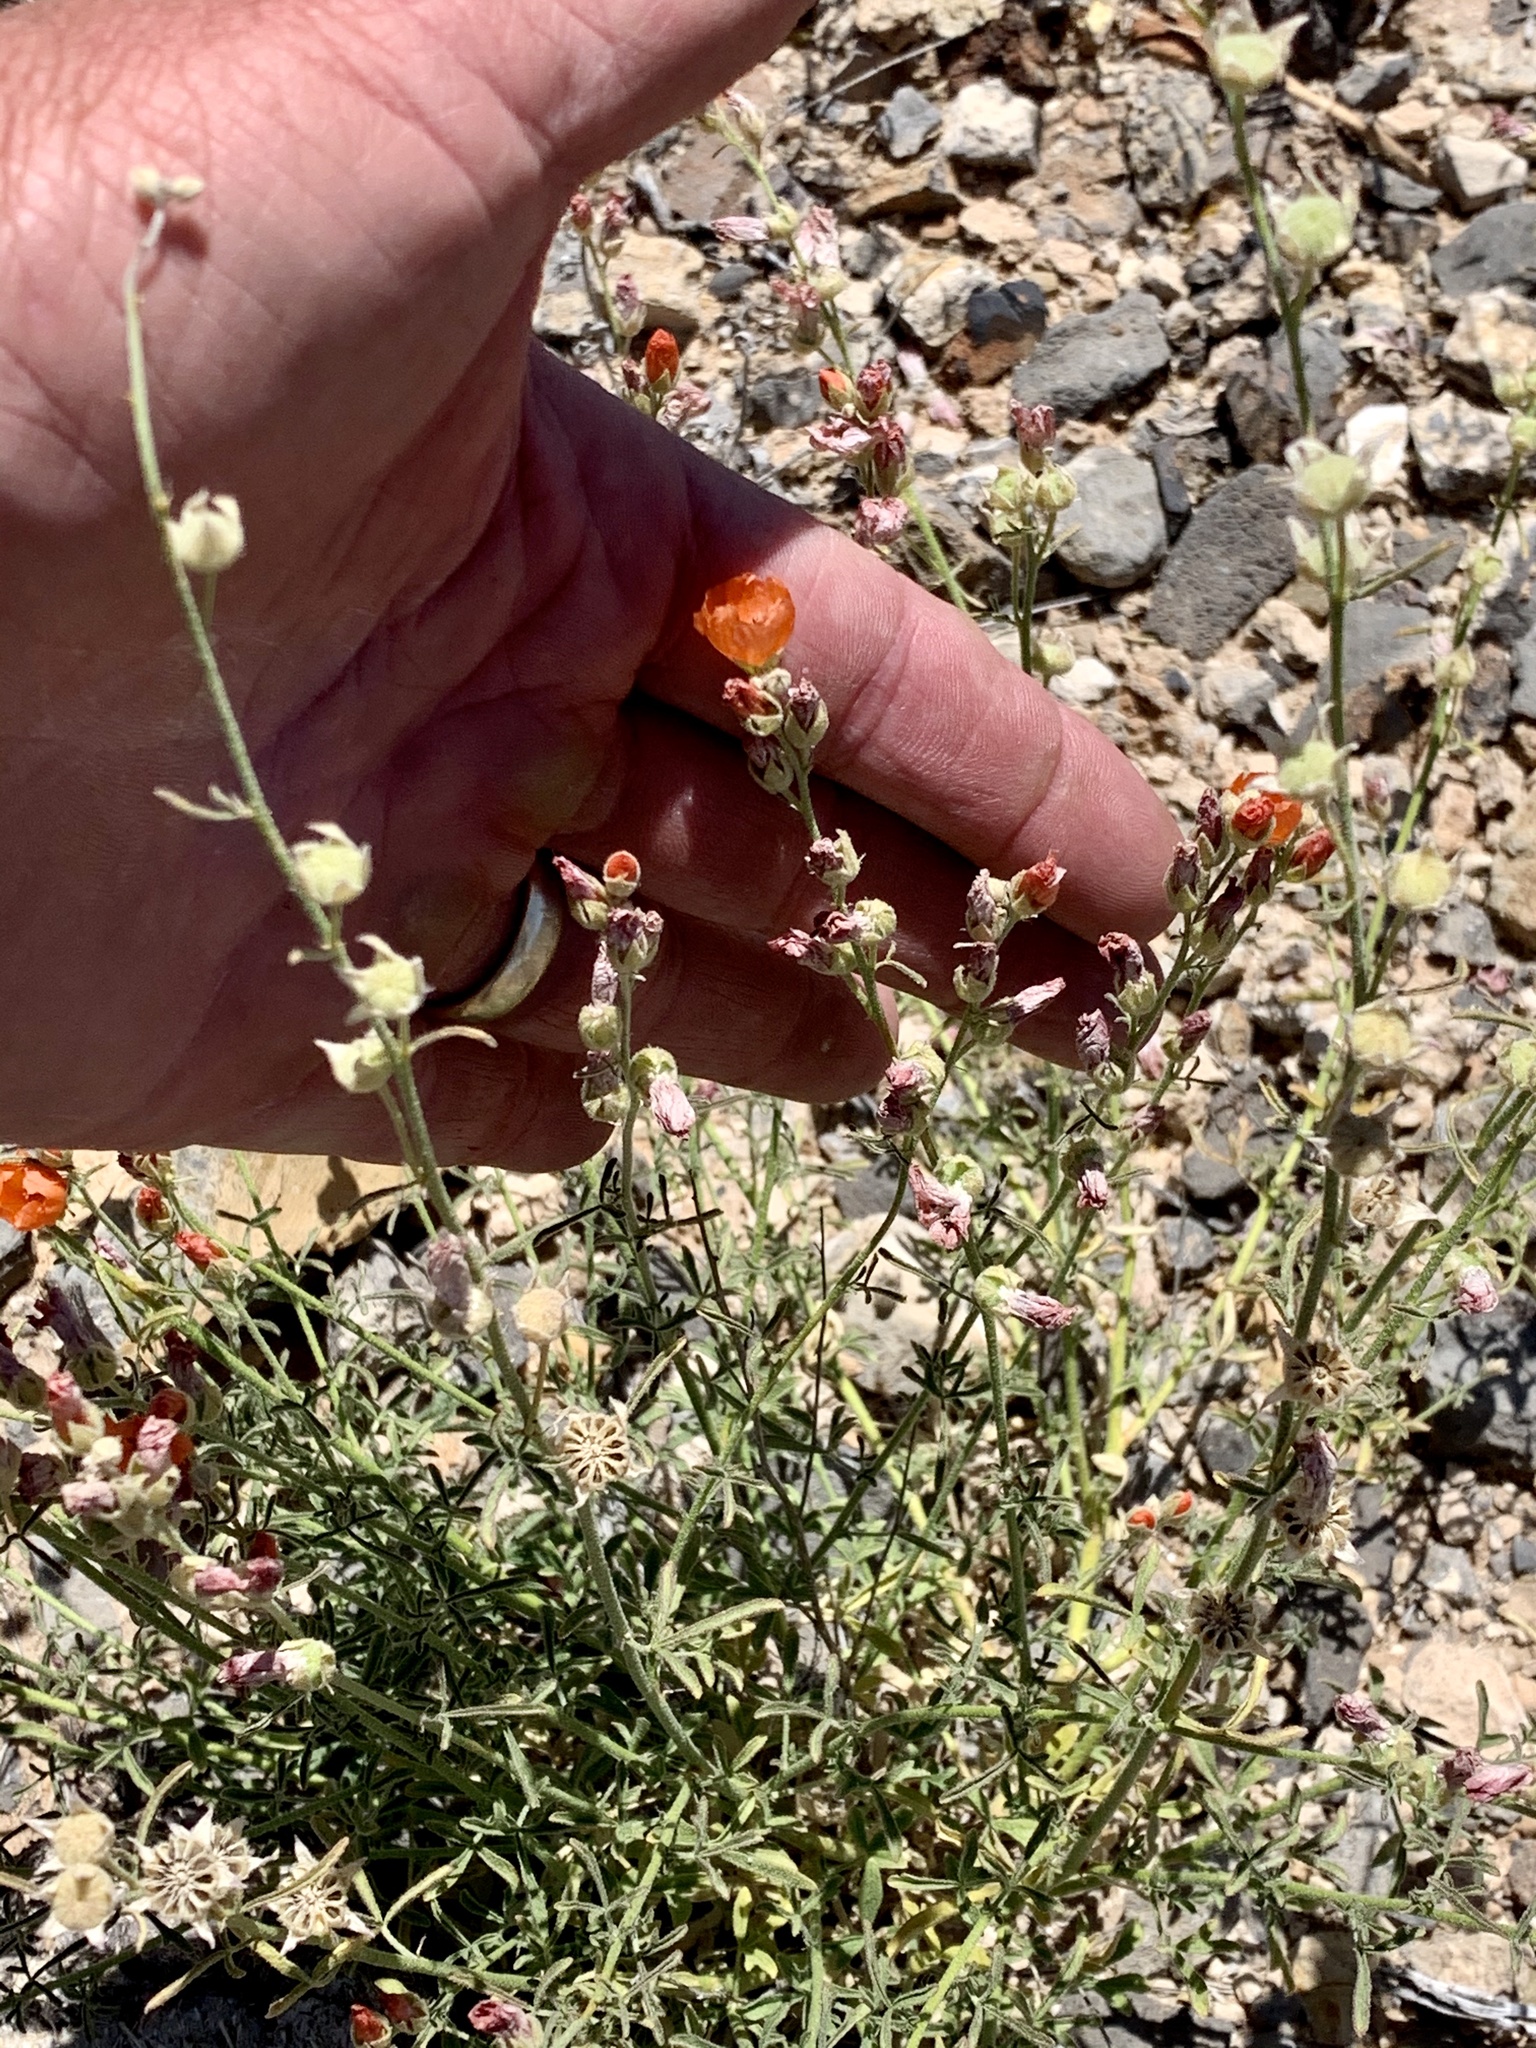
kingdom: Plantae
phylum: Tracheophyta
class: Magnoliopsida
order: Malvales
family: Malvaceae
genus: Sphaeralcea
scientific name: Sphaeralcea coccinea
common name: Moss-rose
